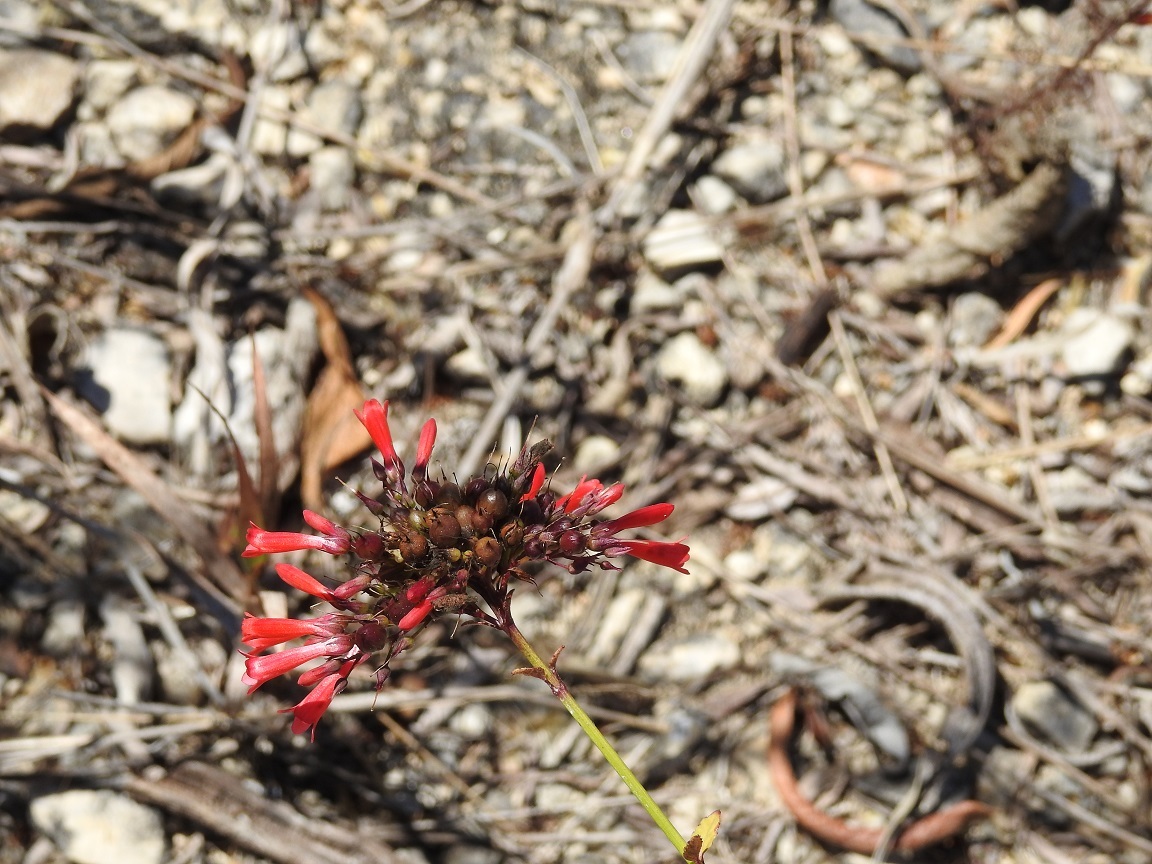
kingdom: Plantae
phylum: Tracheophyta
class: Magnoliopsida
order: Lamiales
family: Plantaginaceae
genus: Russelia
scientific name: Russelia verticillata
